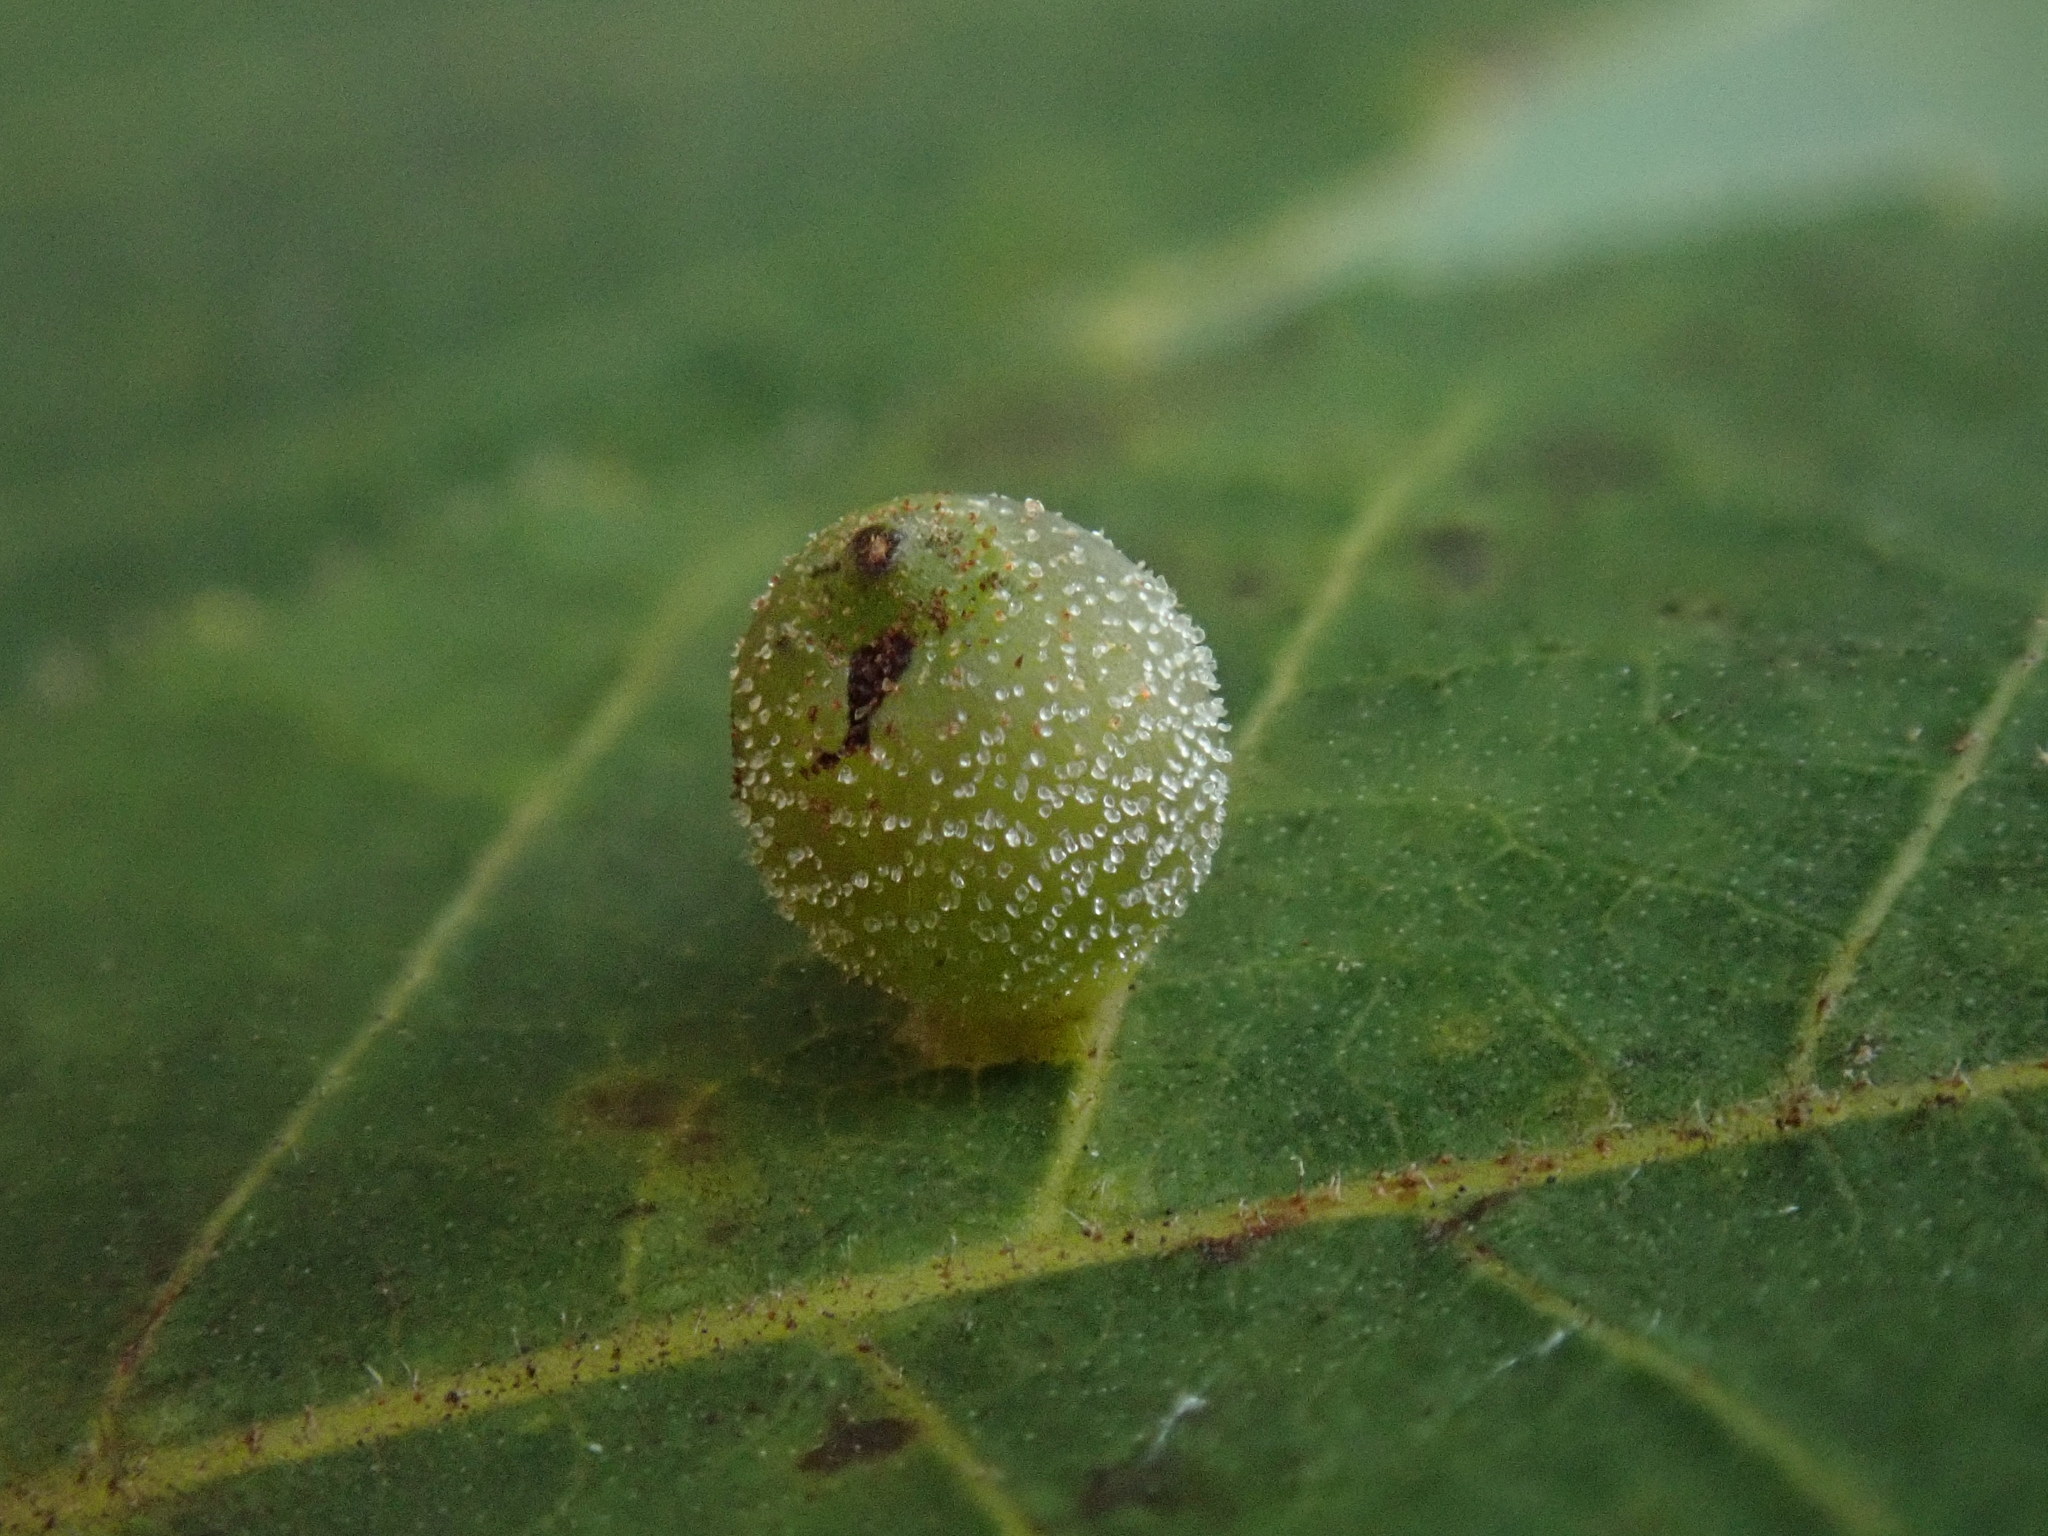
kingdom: Animalia
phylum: Arthropoda
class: Insecta
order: Diptera
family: Cecidomyiidae
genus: Caryomyia
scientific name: Caryomyia viscidolium
